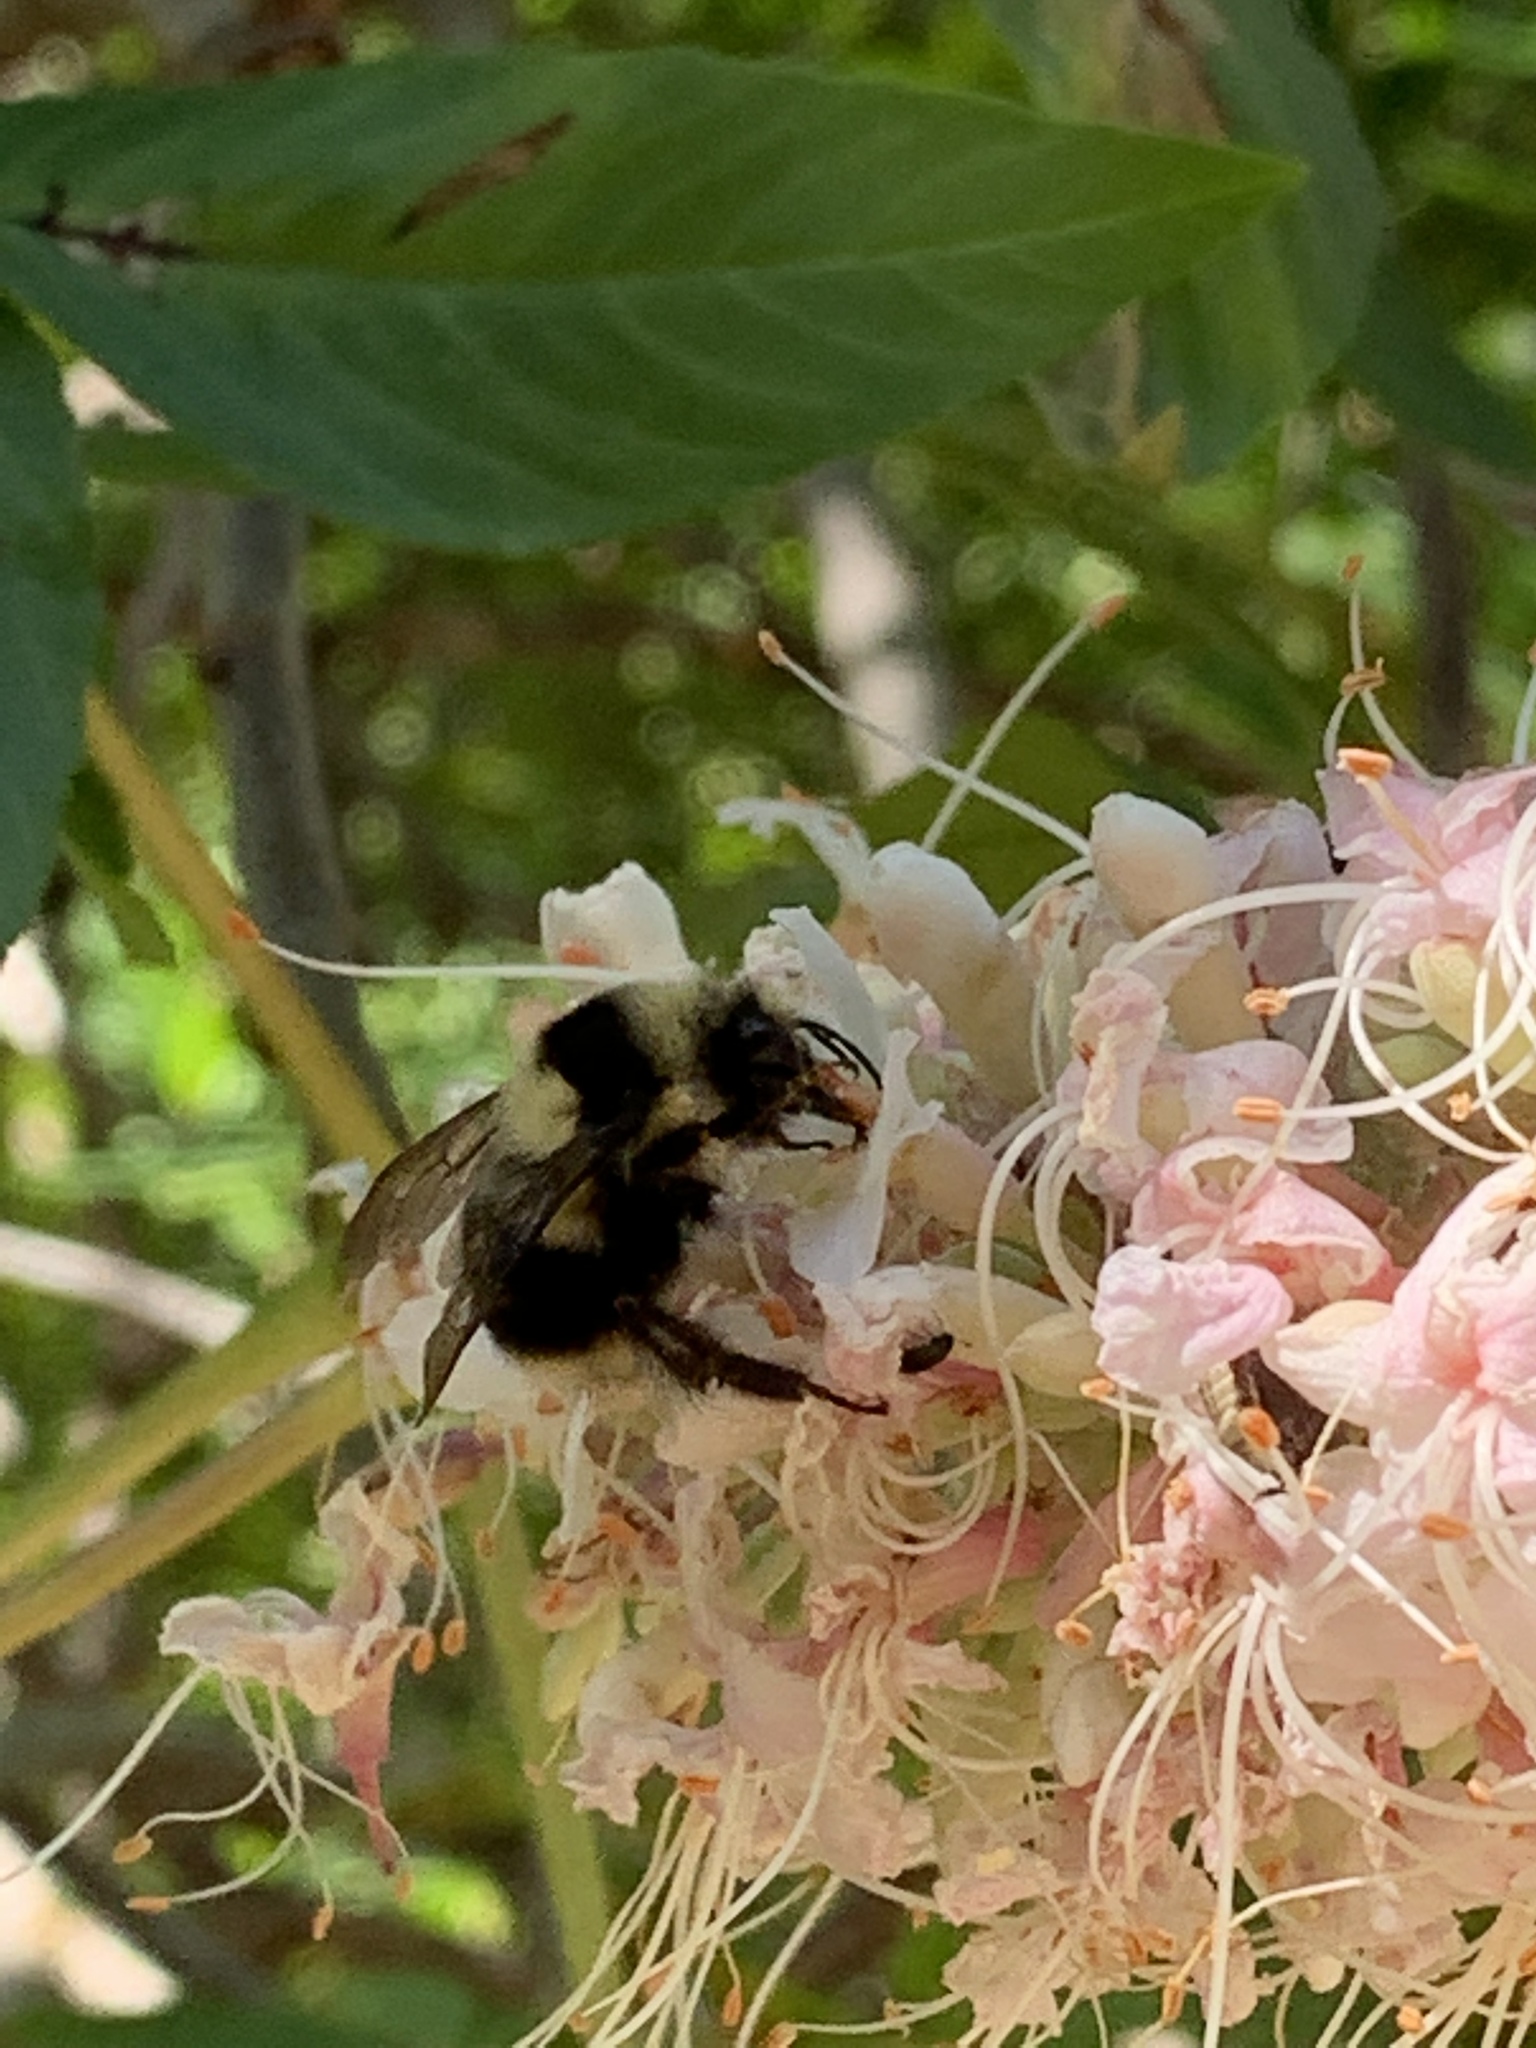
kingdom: Animalia
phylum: Arthropoda
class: Insecta
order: Hymenoptera
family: Apidae
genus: Bombus
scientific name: Bombus melanopygus
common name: Black tail bumble bee
